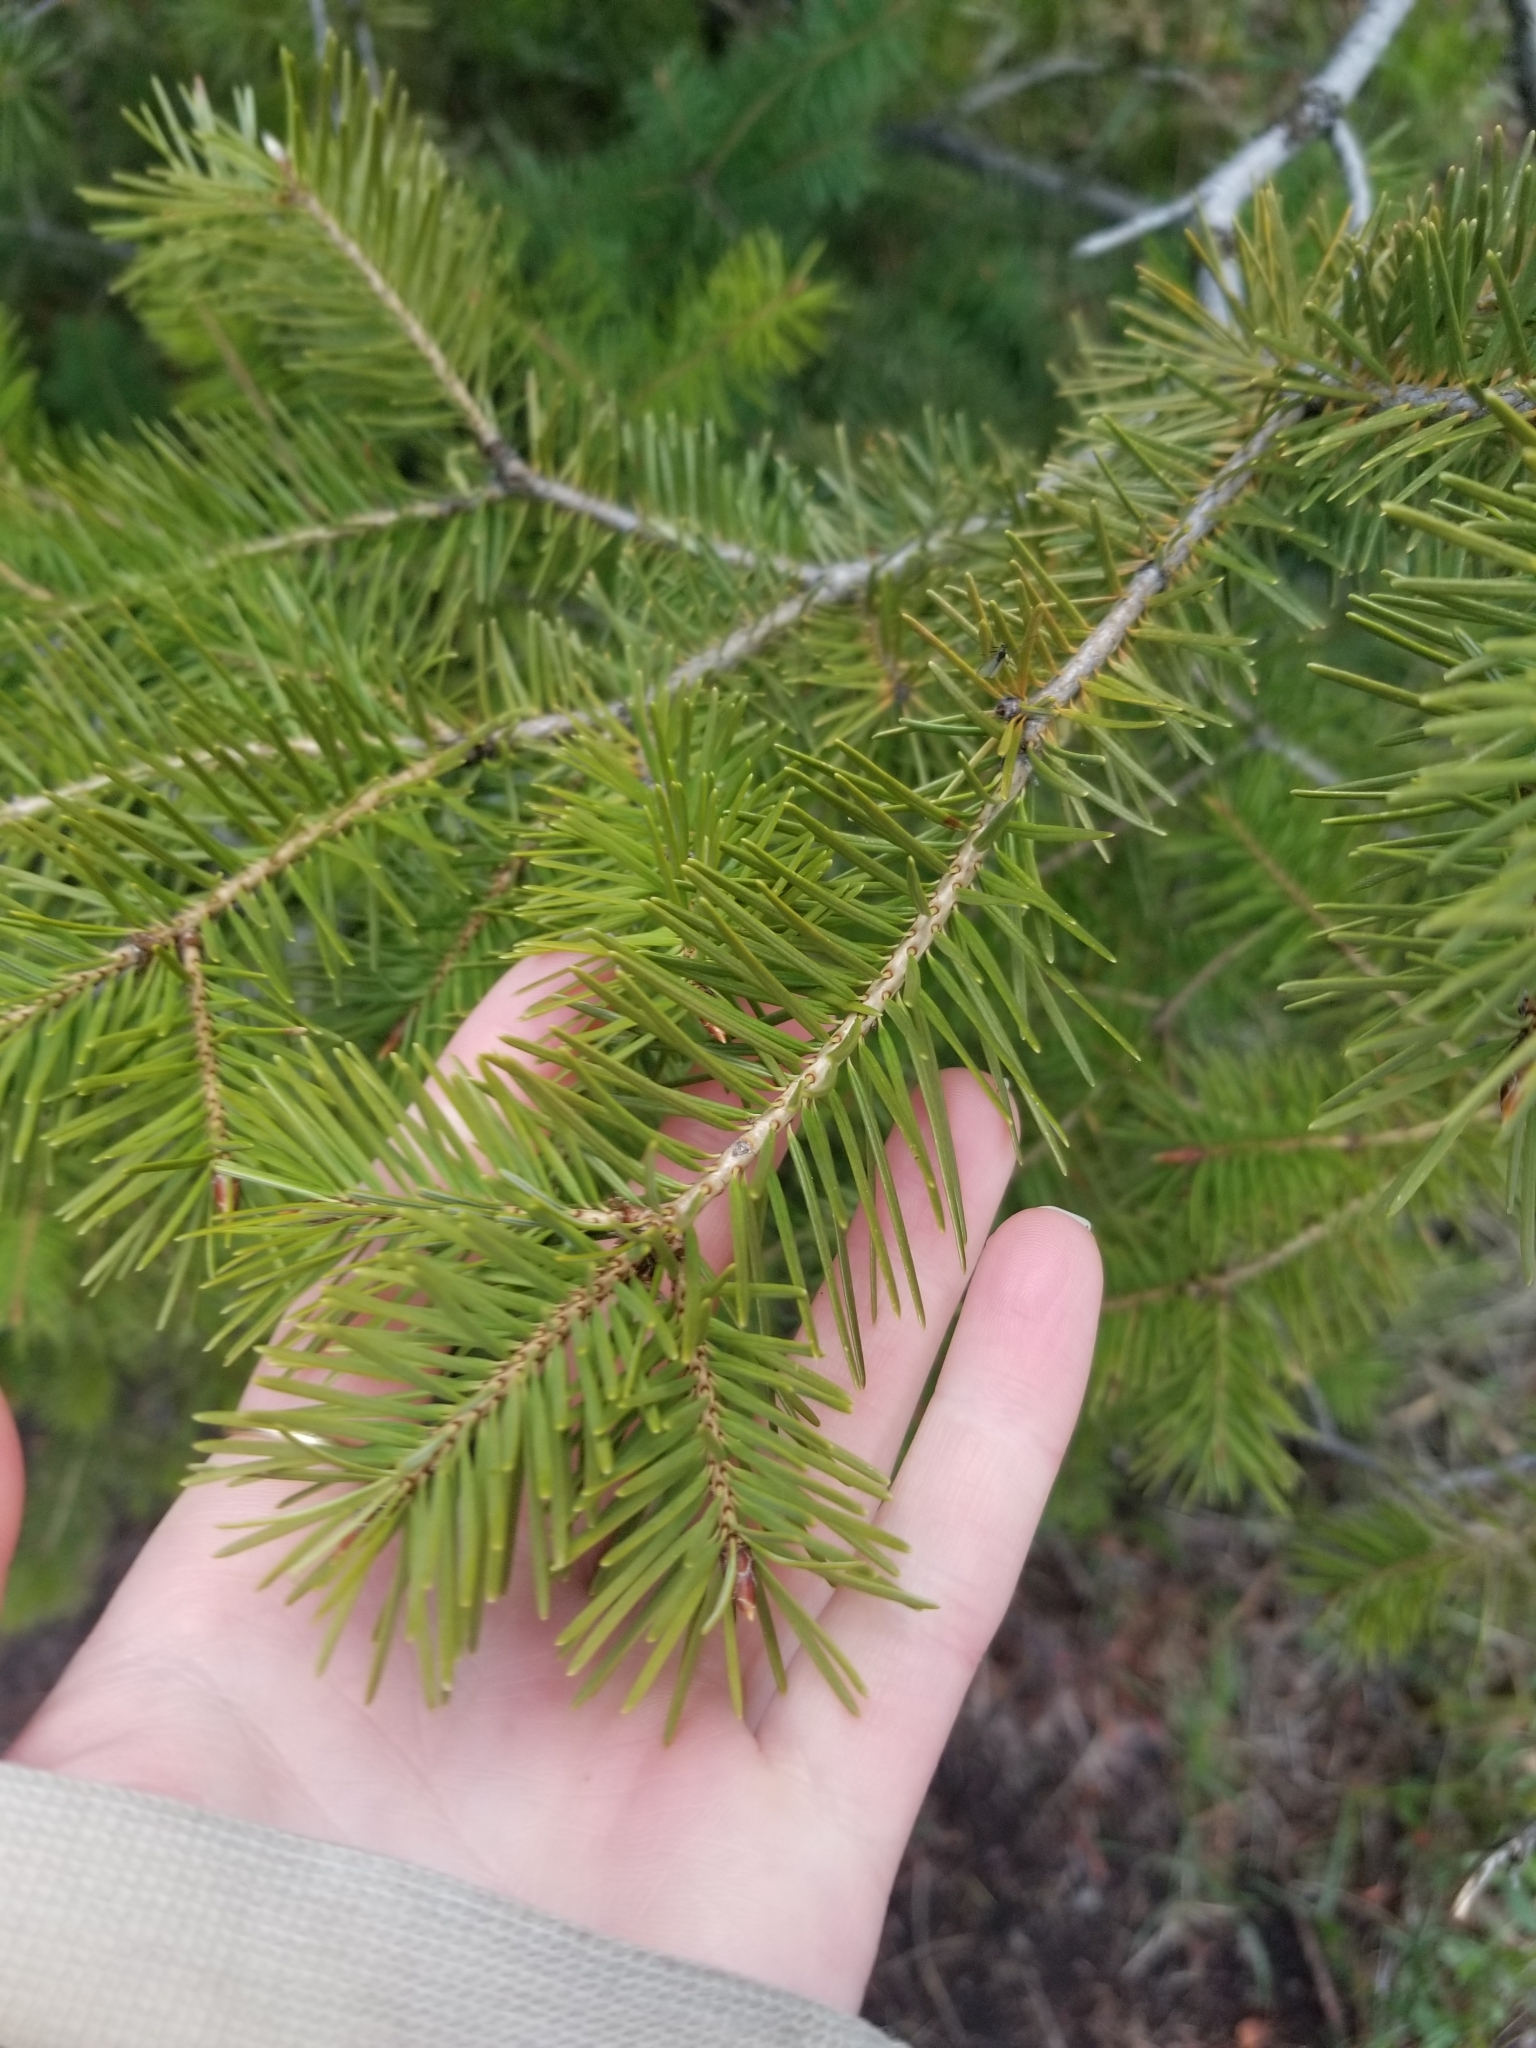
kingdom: Plantae
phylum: Tracheophyta
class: Pinopsida
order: Pinales
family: Pinaceae
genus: Pseudotsuga
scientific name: Pseudotsuga menziesii
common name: Douglas fir
